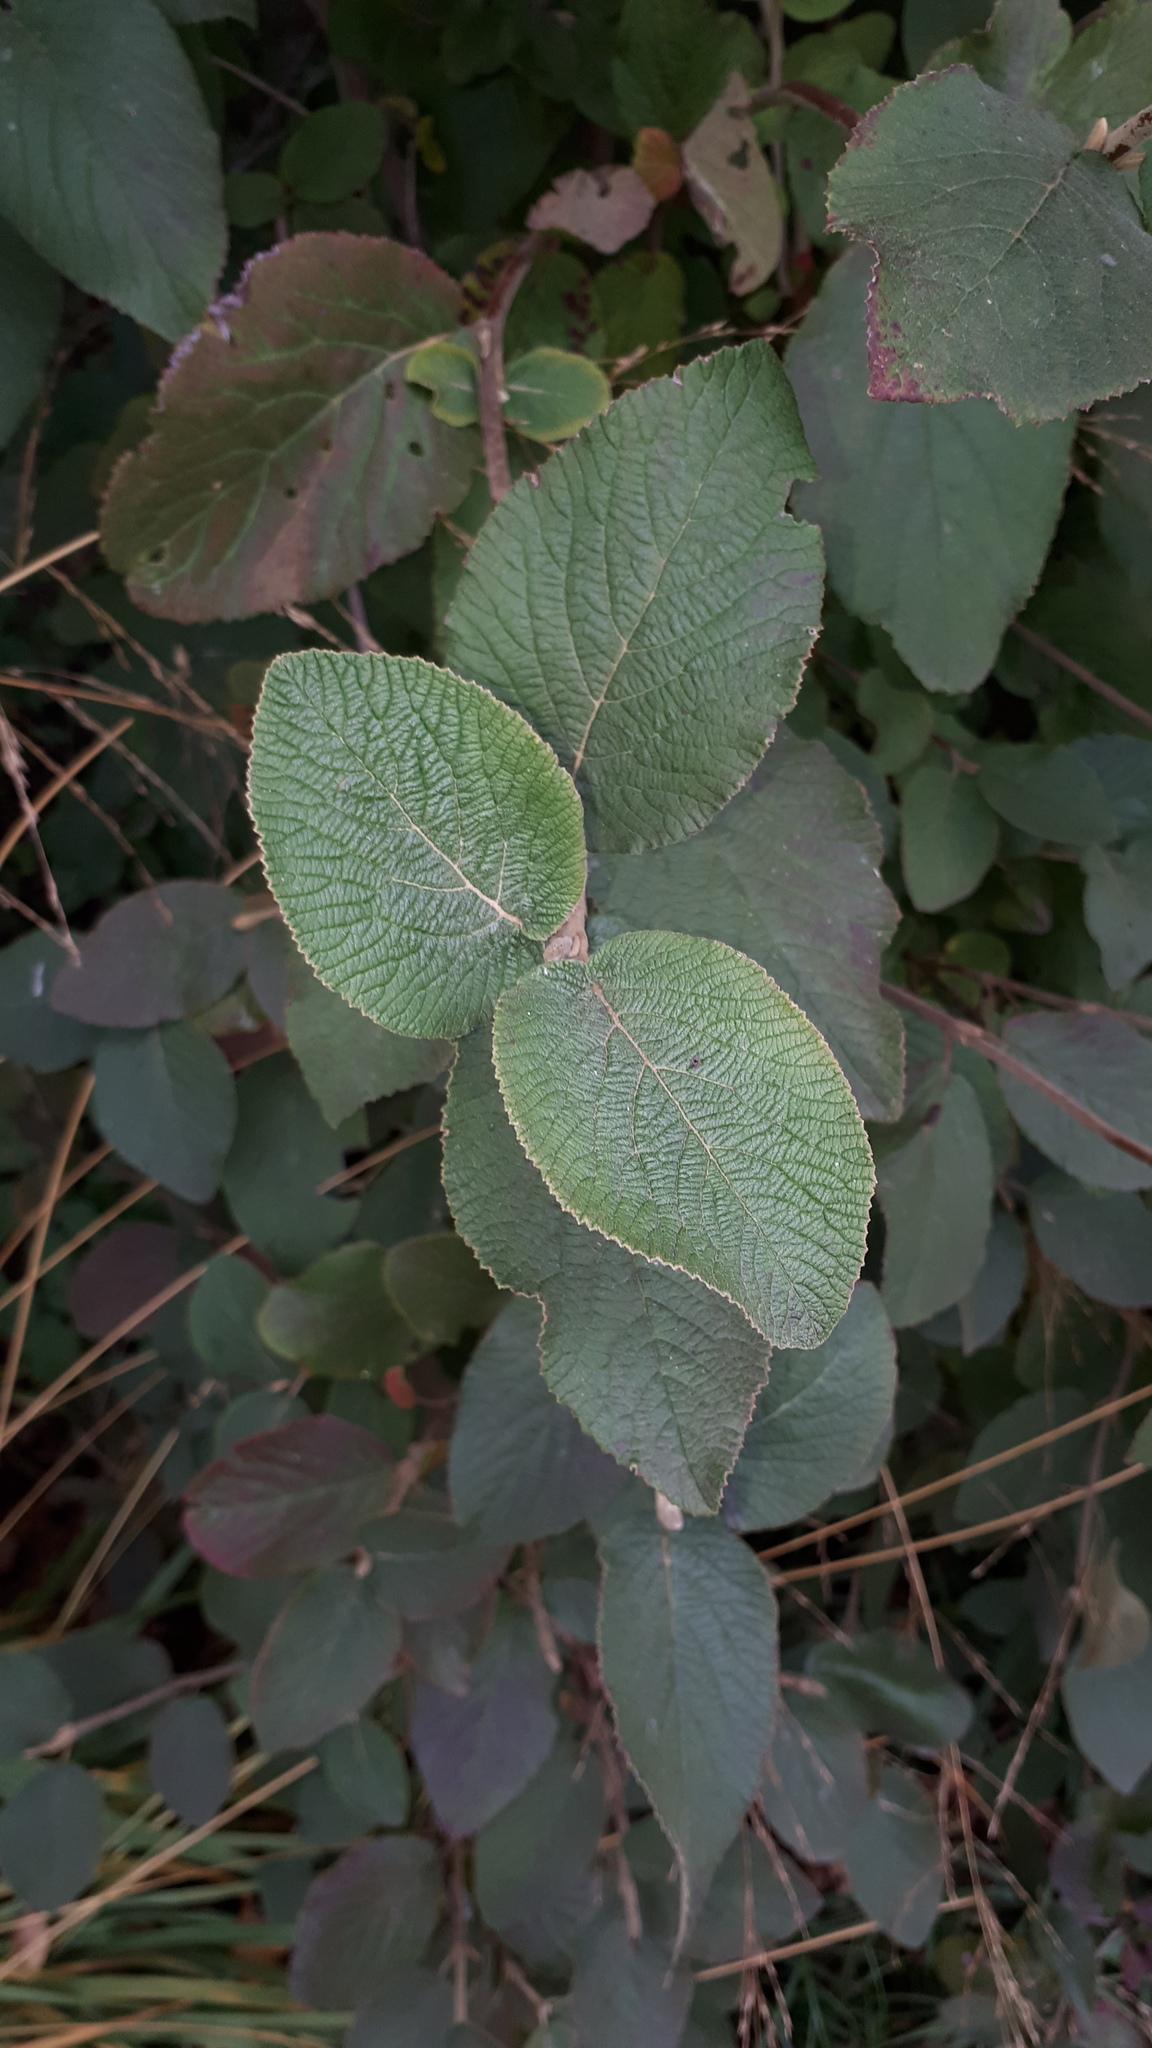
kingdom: Plantae
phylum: Tracheophyta
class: Magnoliopsida
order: Dipsacales
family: Viburnaceae
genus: Viburnum
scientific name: Viburnum lantana
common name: Wayfaring tree
